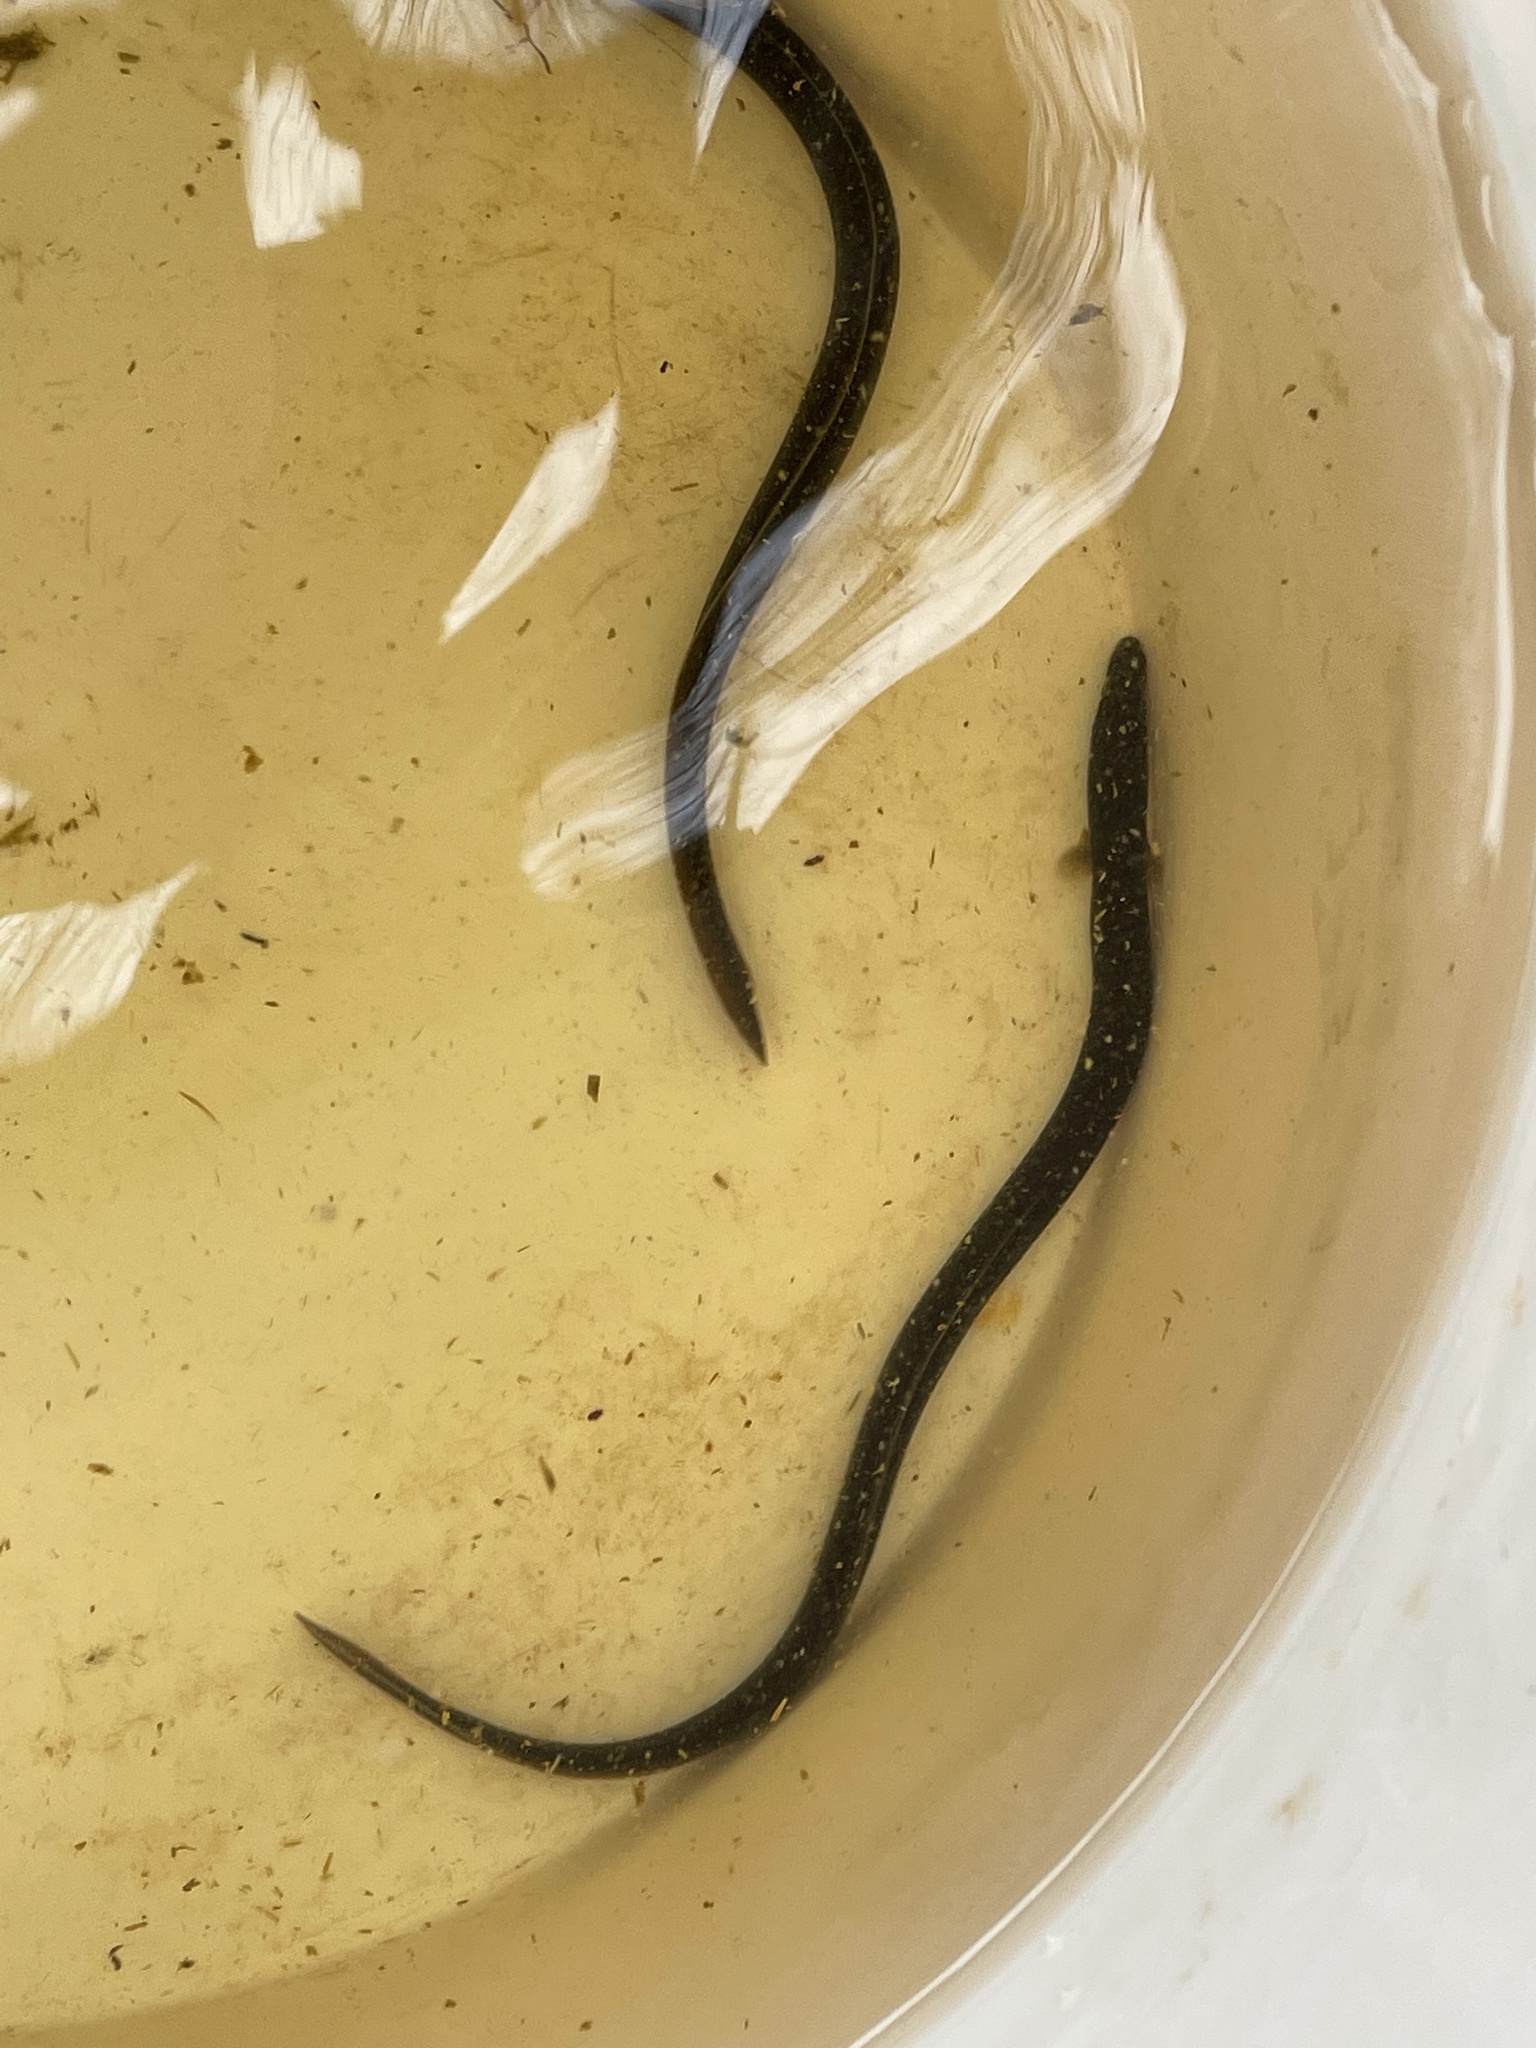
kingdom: Animalia
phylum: Chordata
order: Anguilliformes
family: Anguillidae
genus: Anguilla
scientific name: Anguilla rostrata
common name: American eel
